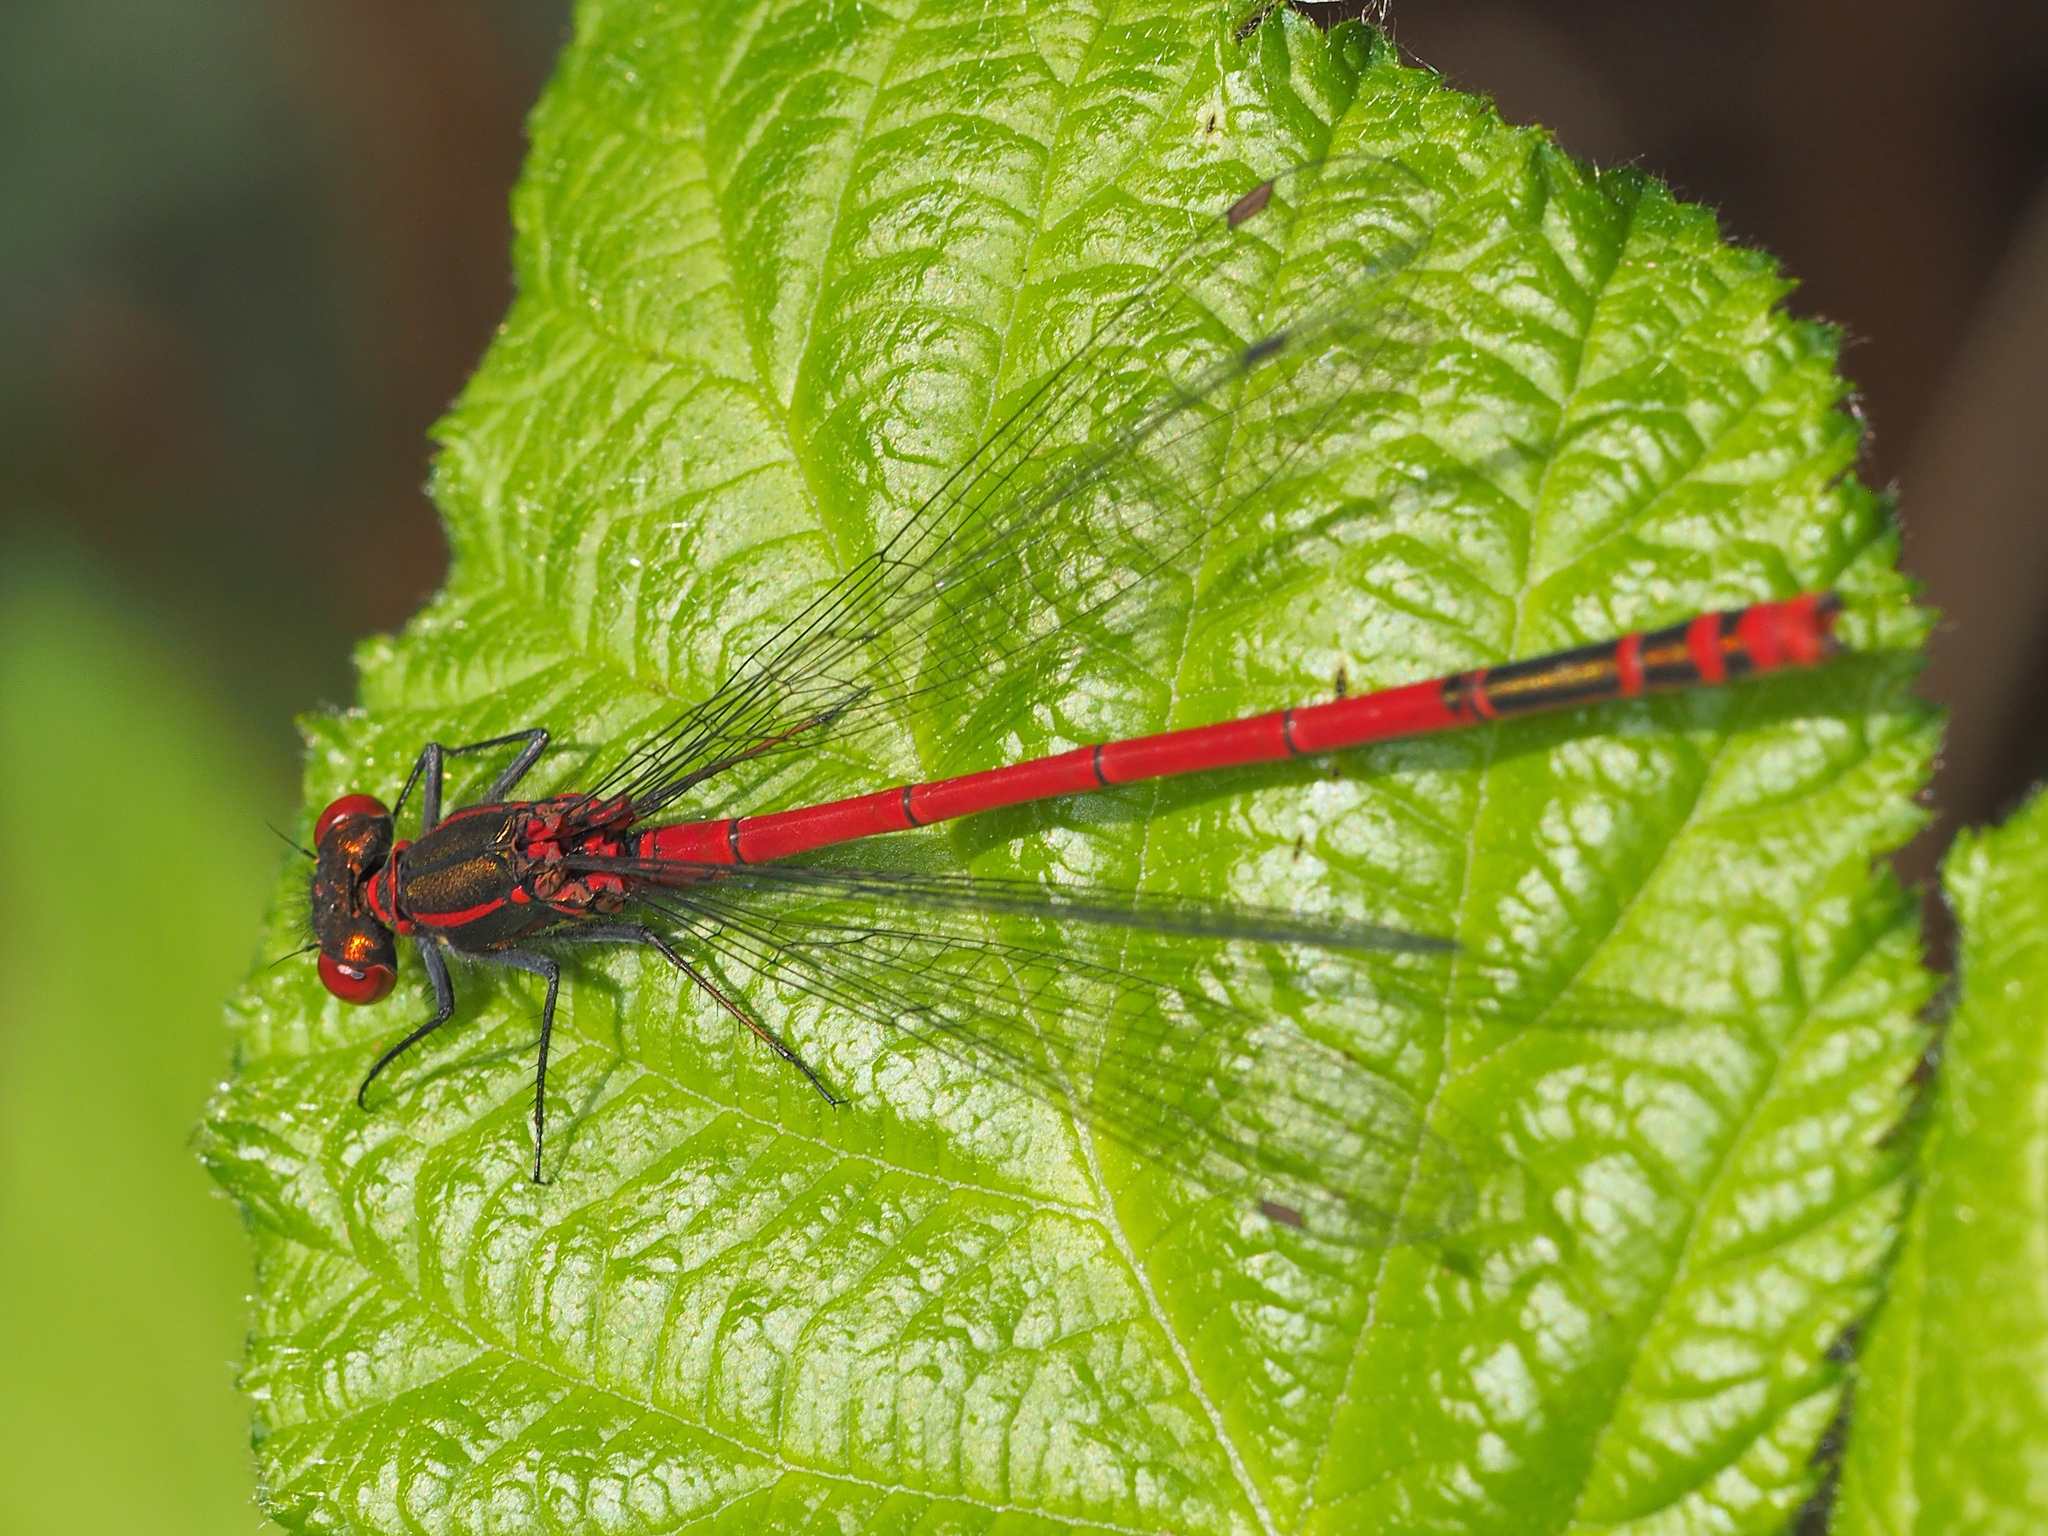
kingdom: Animalia
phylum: Arthropoda
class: Insecta
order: Odonata
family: Coenagrionidae
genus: Pyrrhosoma
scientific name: Pyrrhosoma nymphula
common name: Large red damsel
